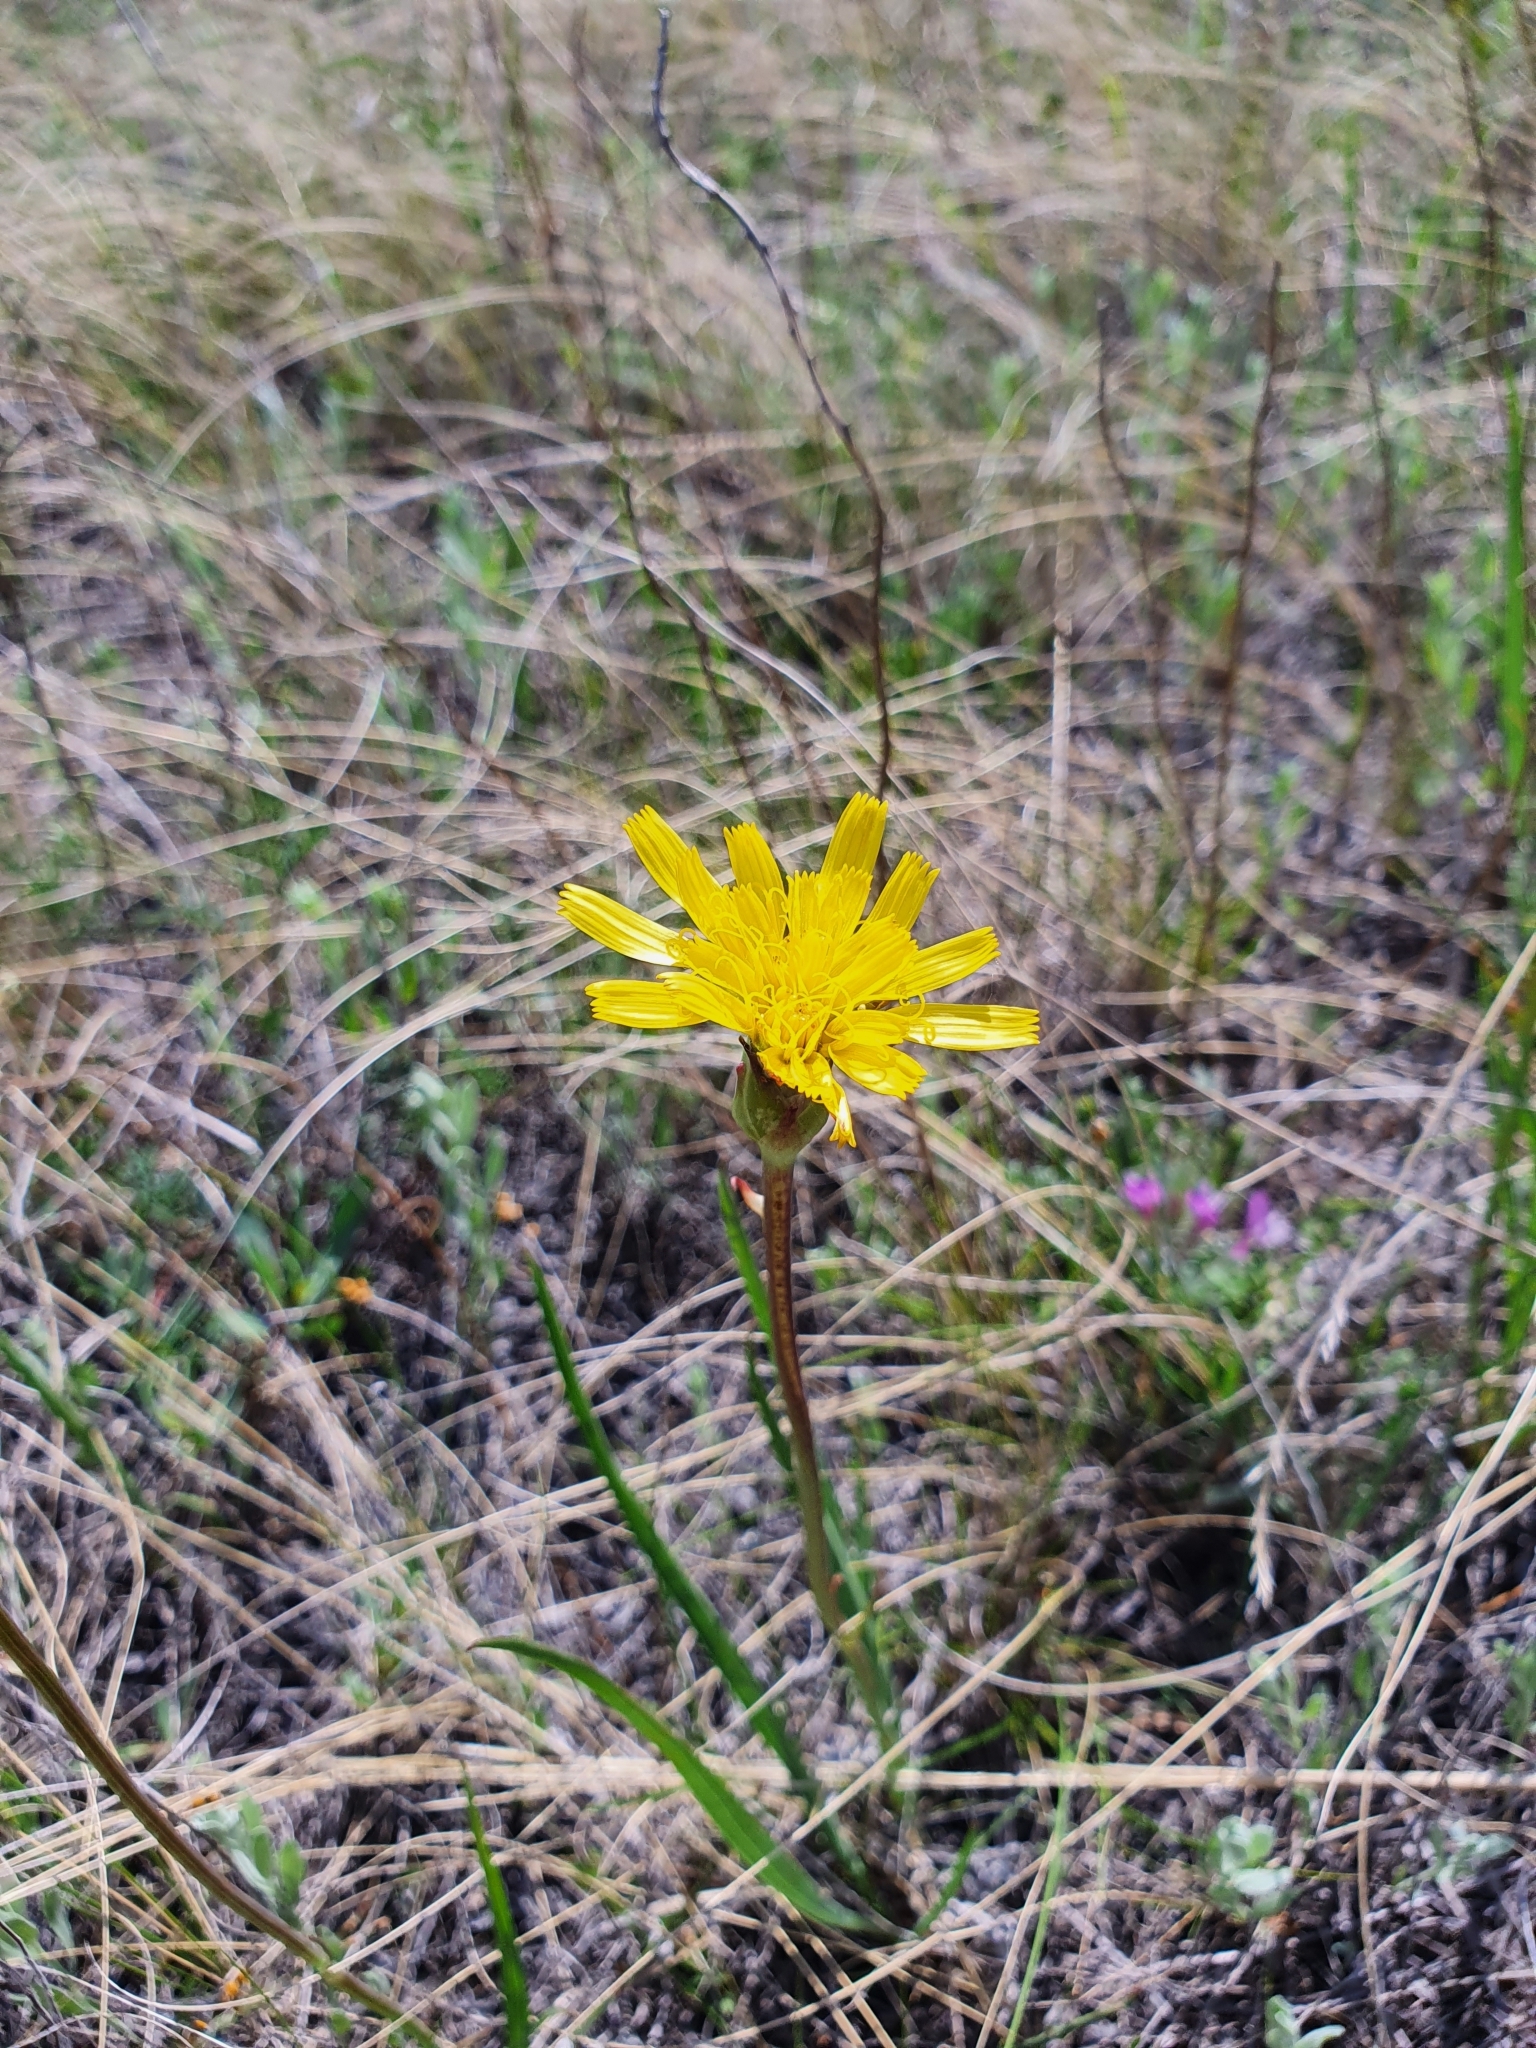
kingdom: Plantae
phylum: Tracheophyta
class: Magnoliopsida
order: Asterales
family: Asteraceae
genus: Takhtajaniantha
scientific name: Takhtajaniantha austriaca
